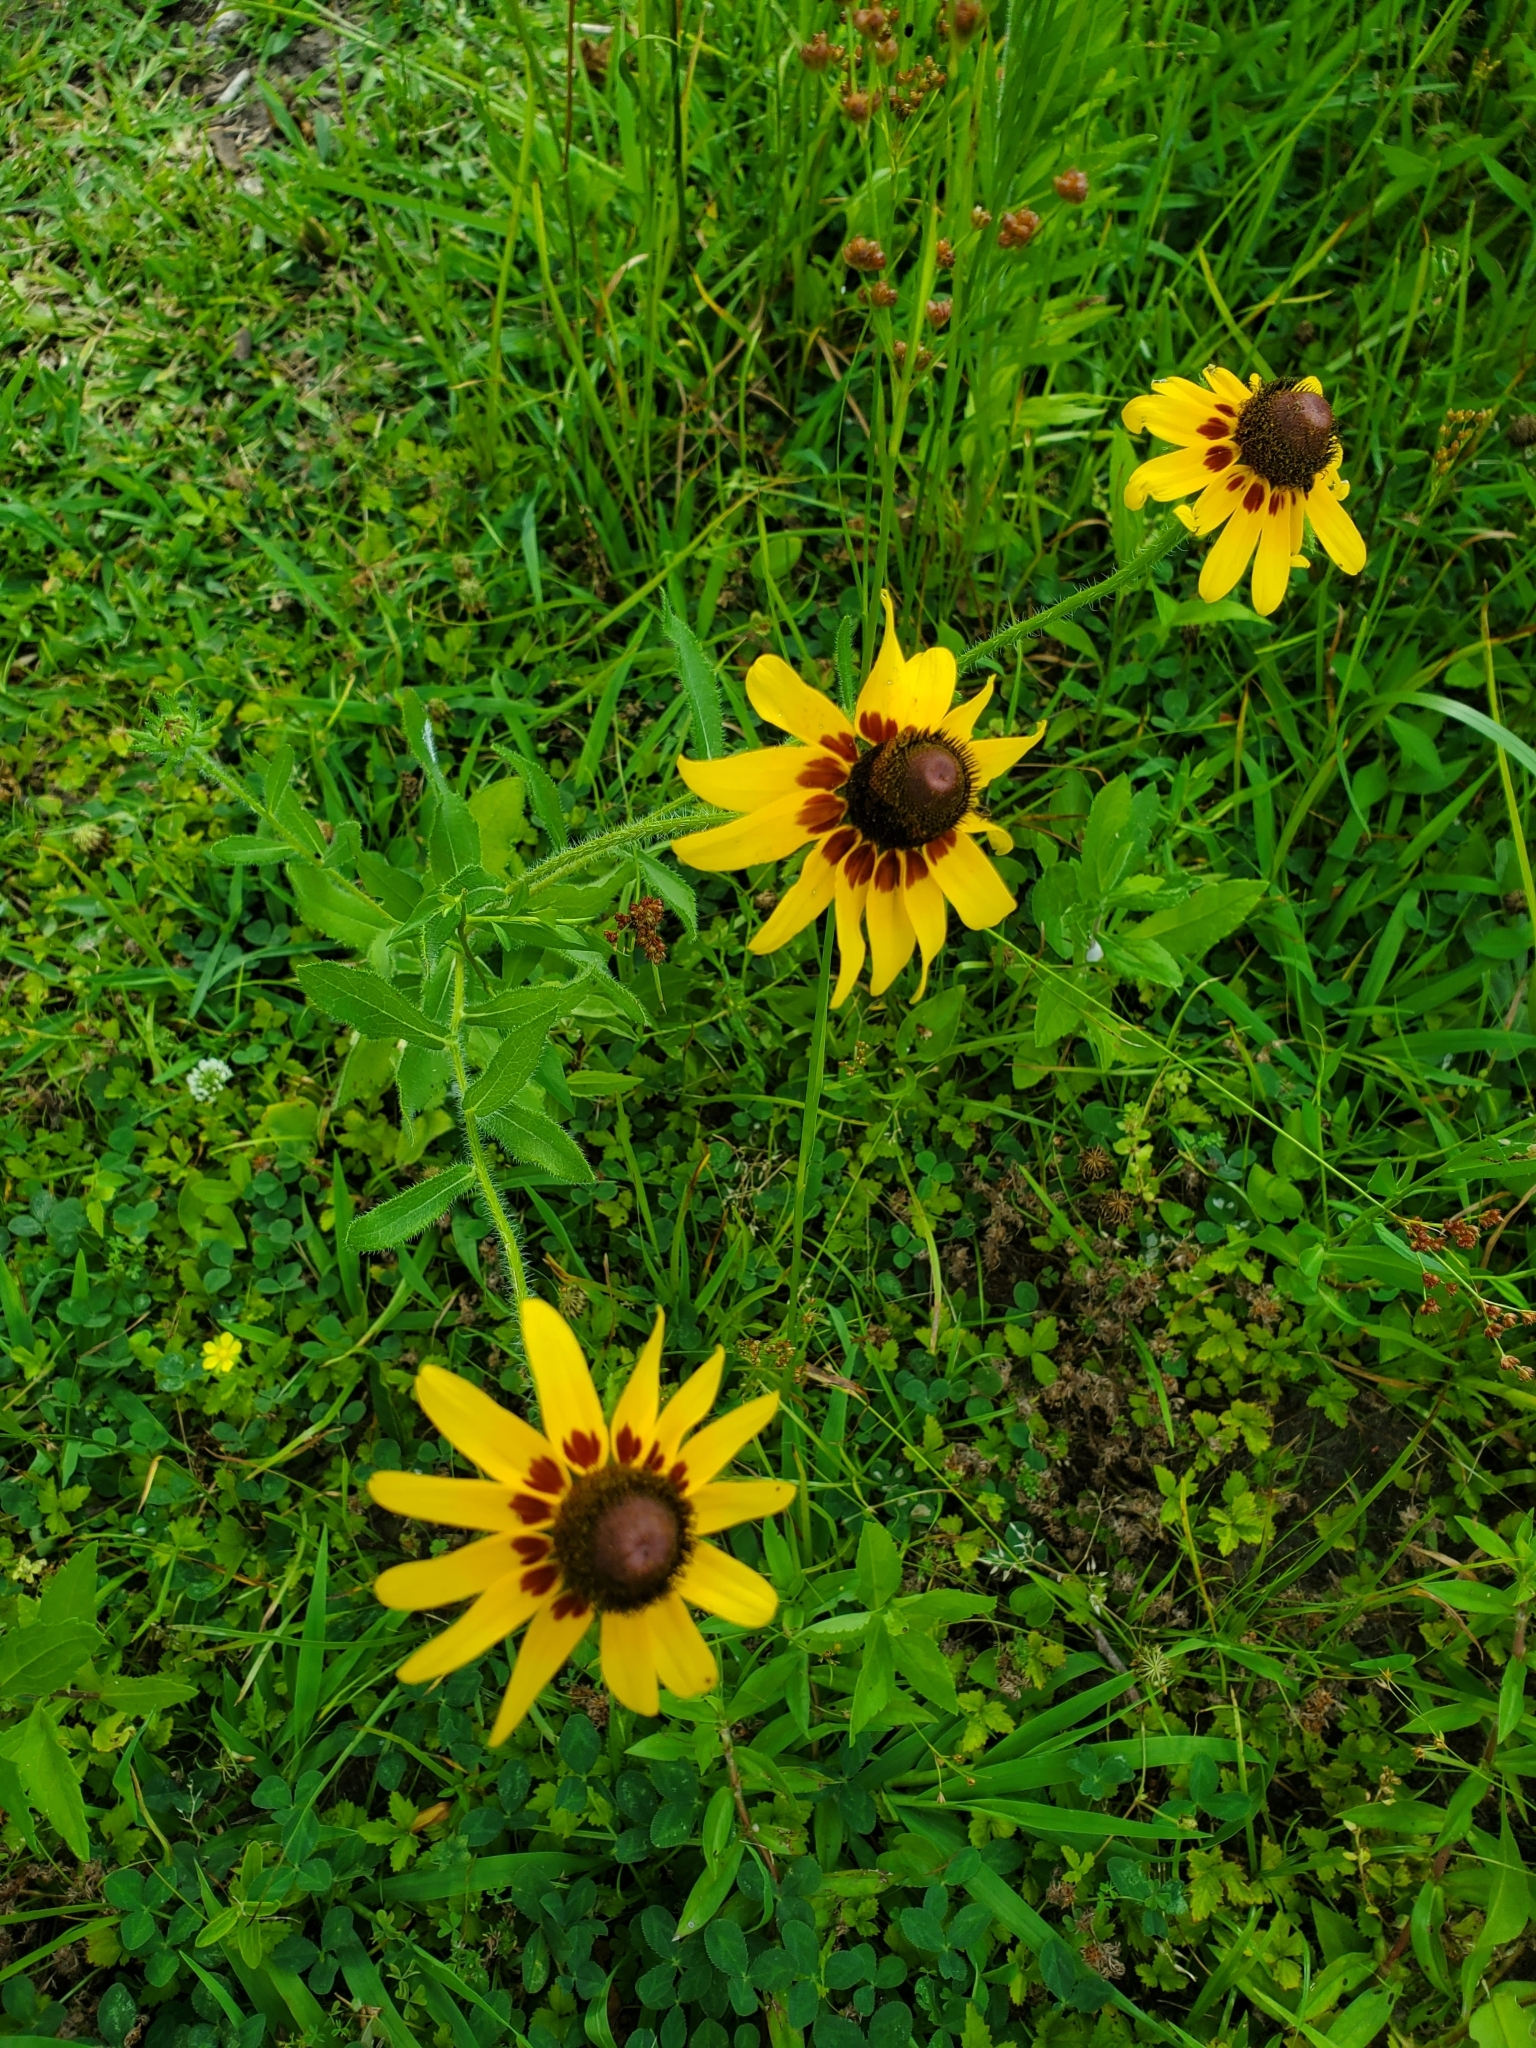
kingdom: Plantae
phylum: Tracheophyta
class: Magnoliopsida
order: Asterales
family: Asteraceae
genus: Rudbeckia
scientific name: Rudbeckia hirta
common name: Black-eyed-susan
